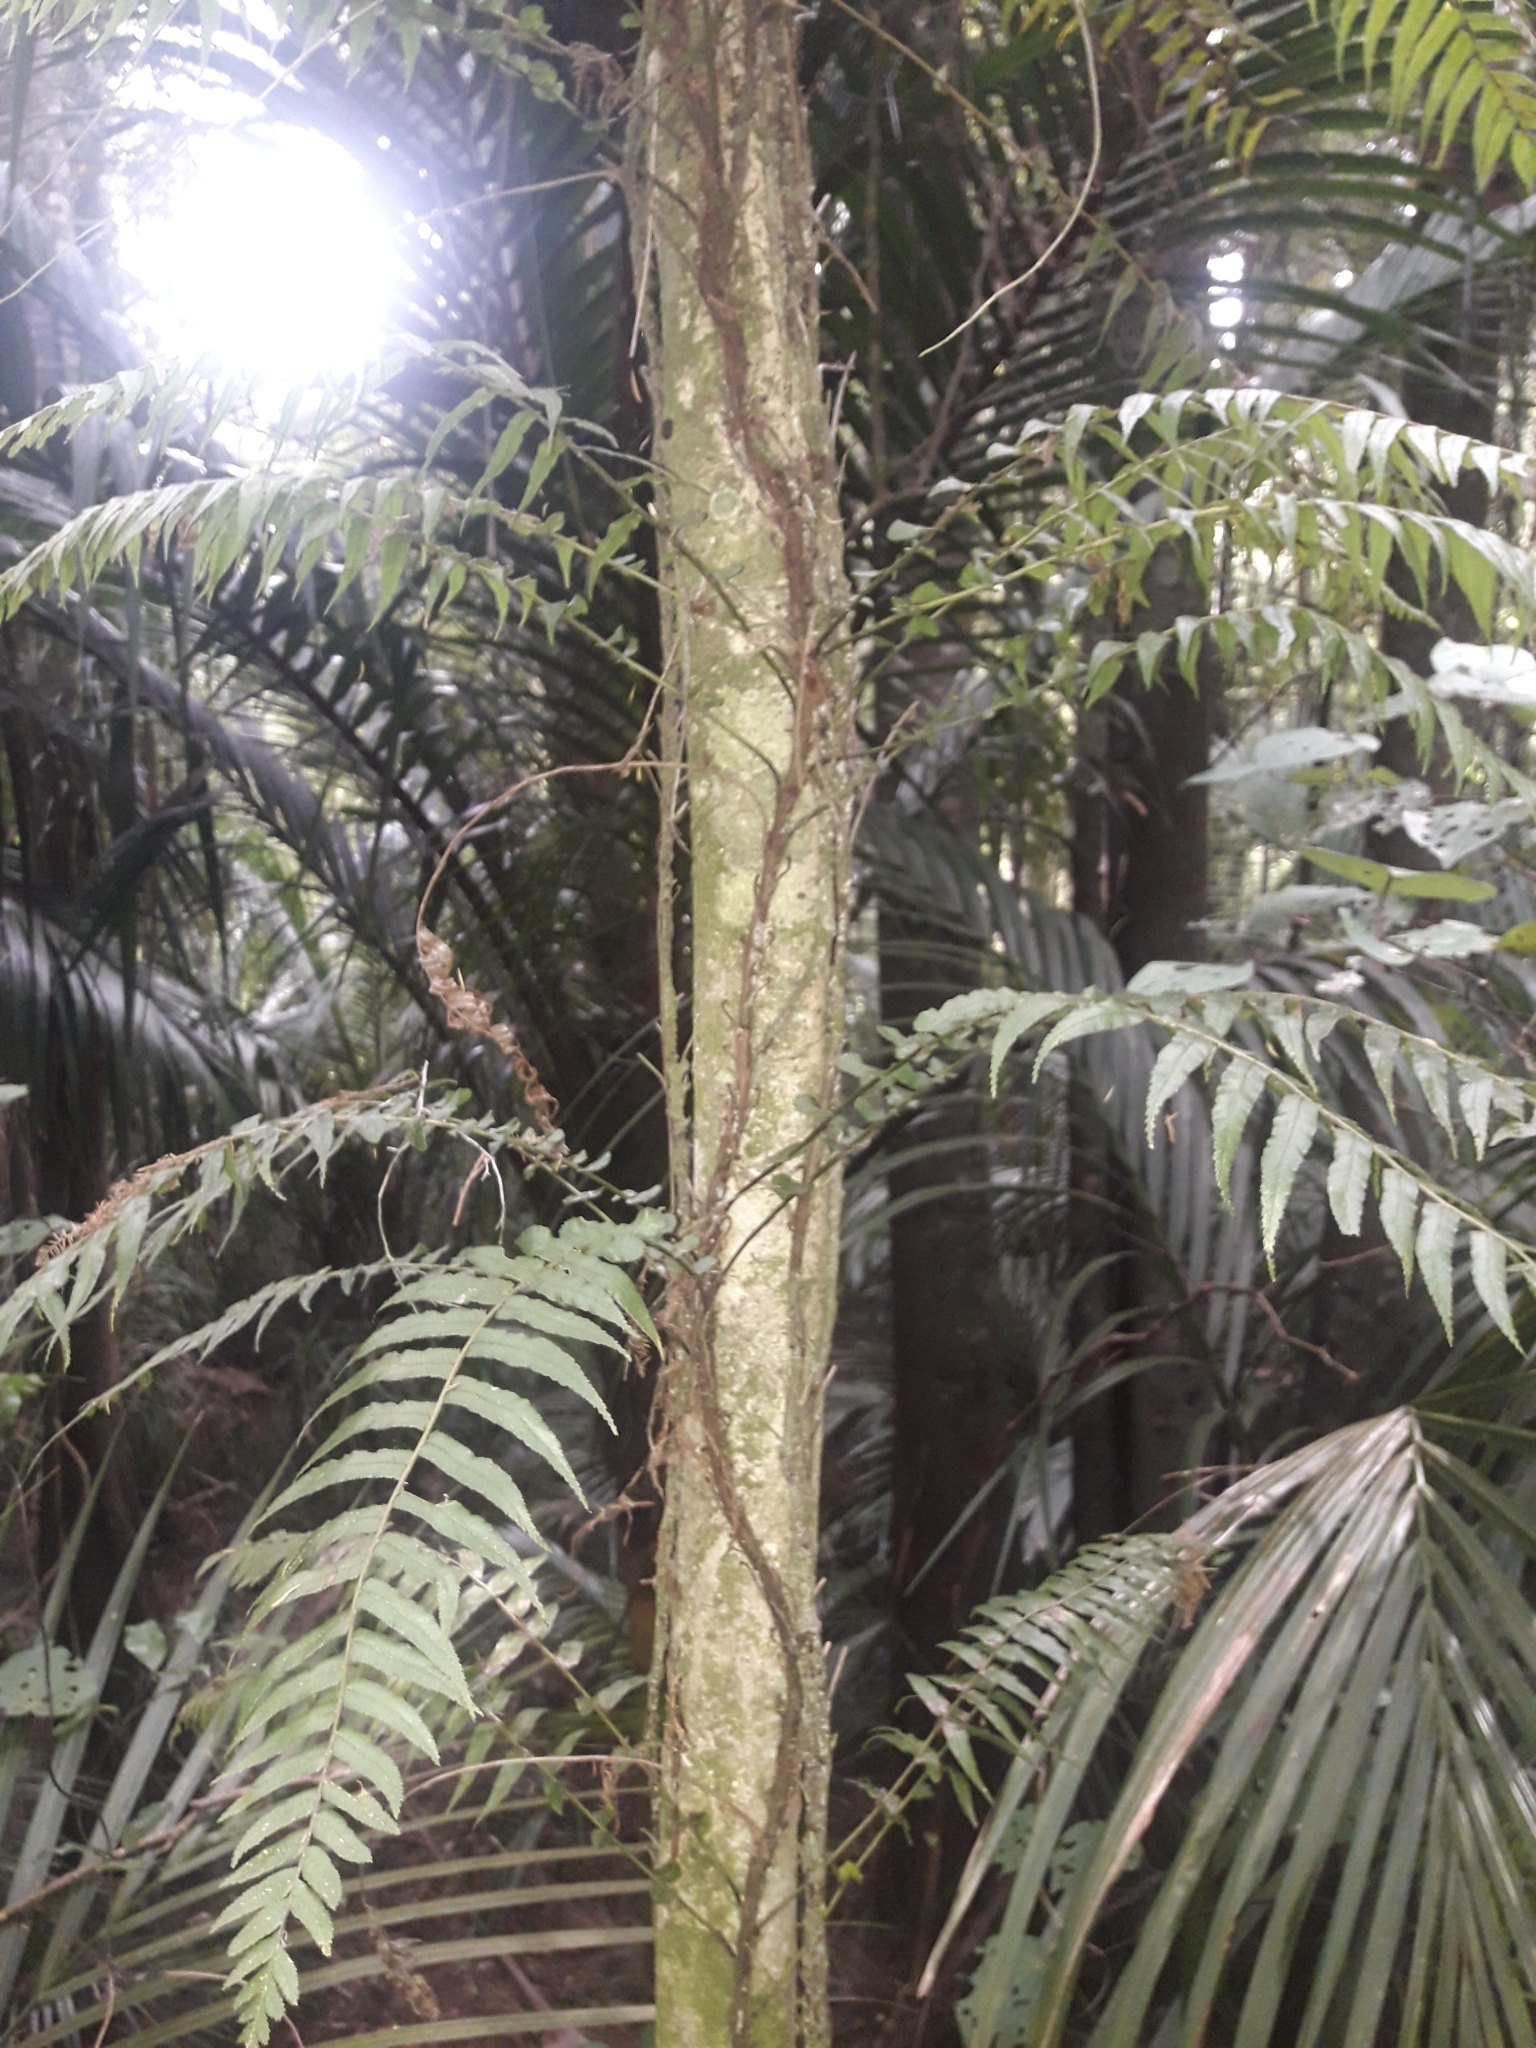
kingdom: Plantae
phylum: Tracheophyta
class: Polypodiopsida
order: Polypodiales
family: Blechnaceae
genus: Icarus
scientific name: Icarus filiformis
